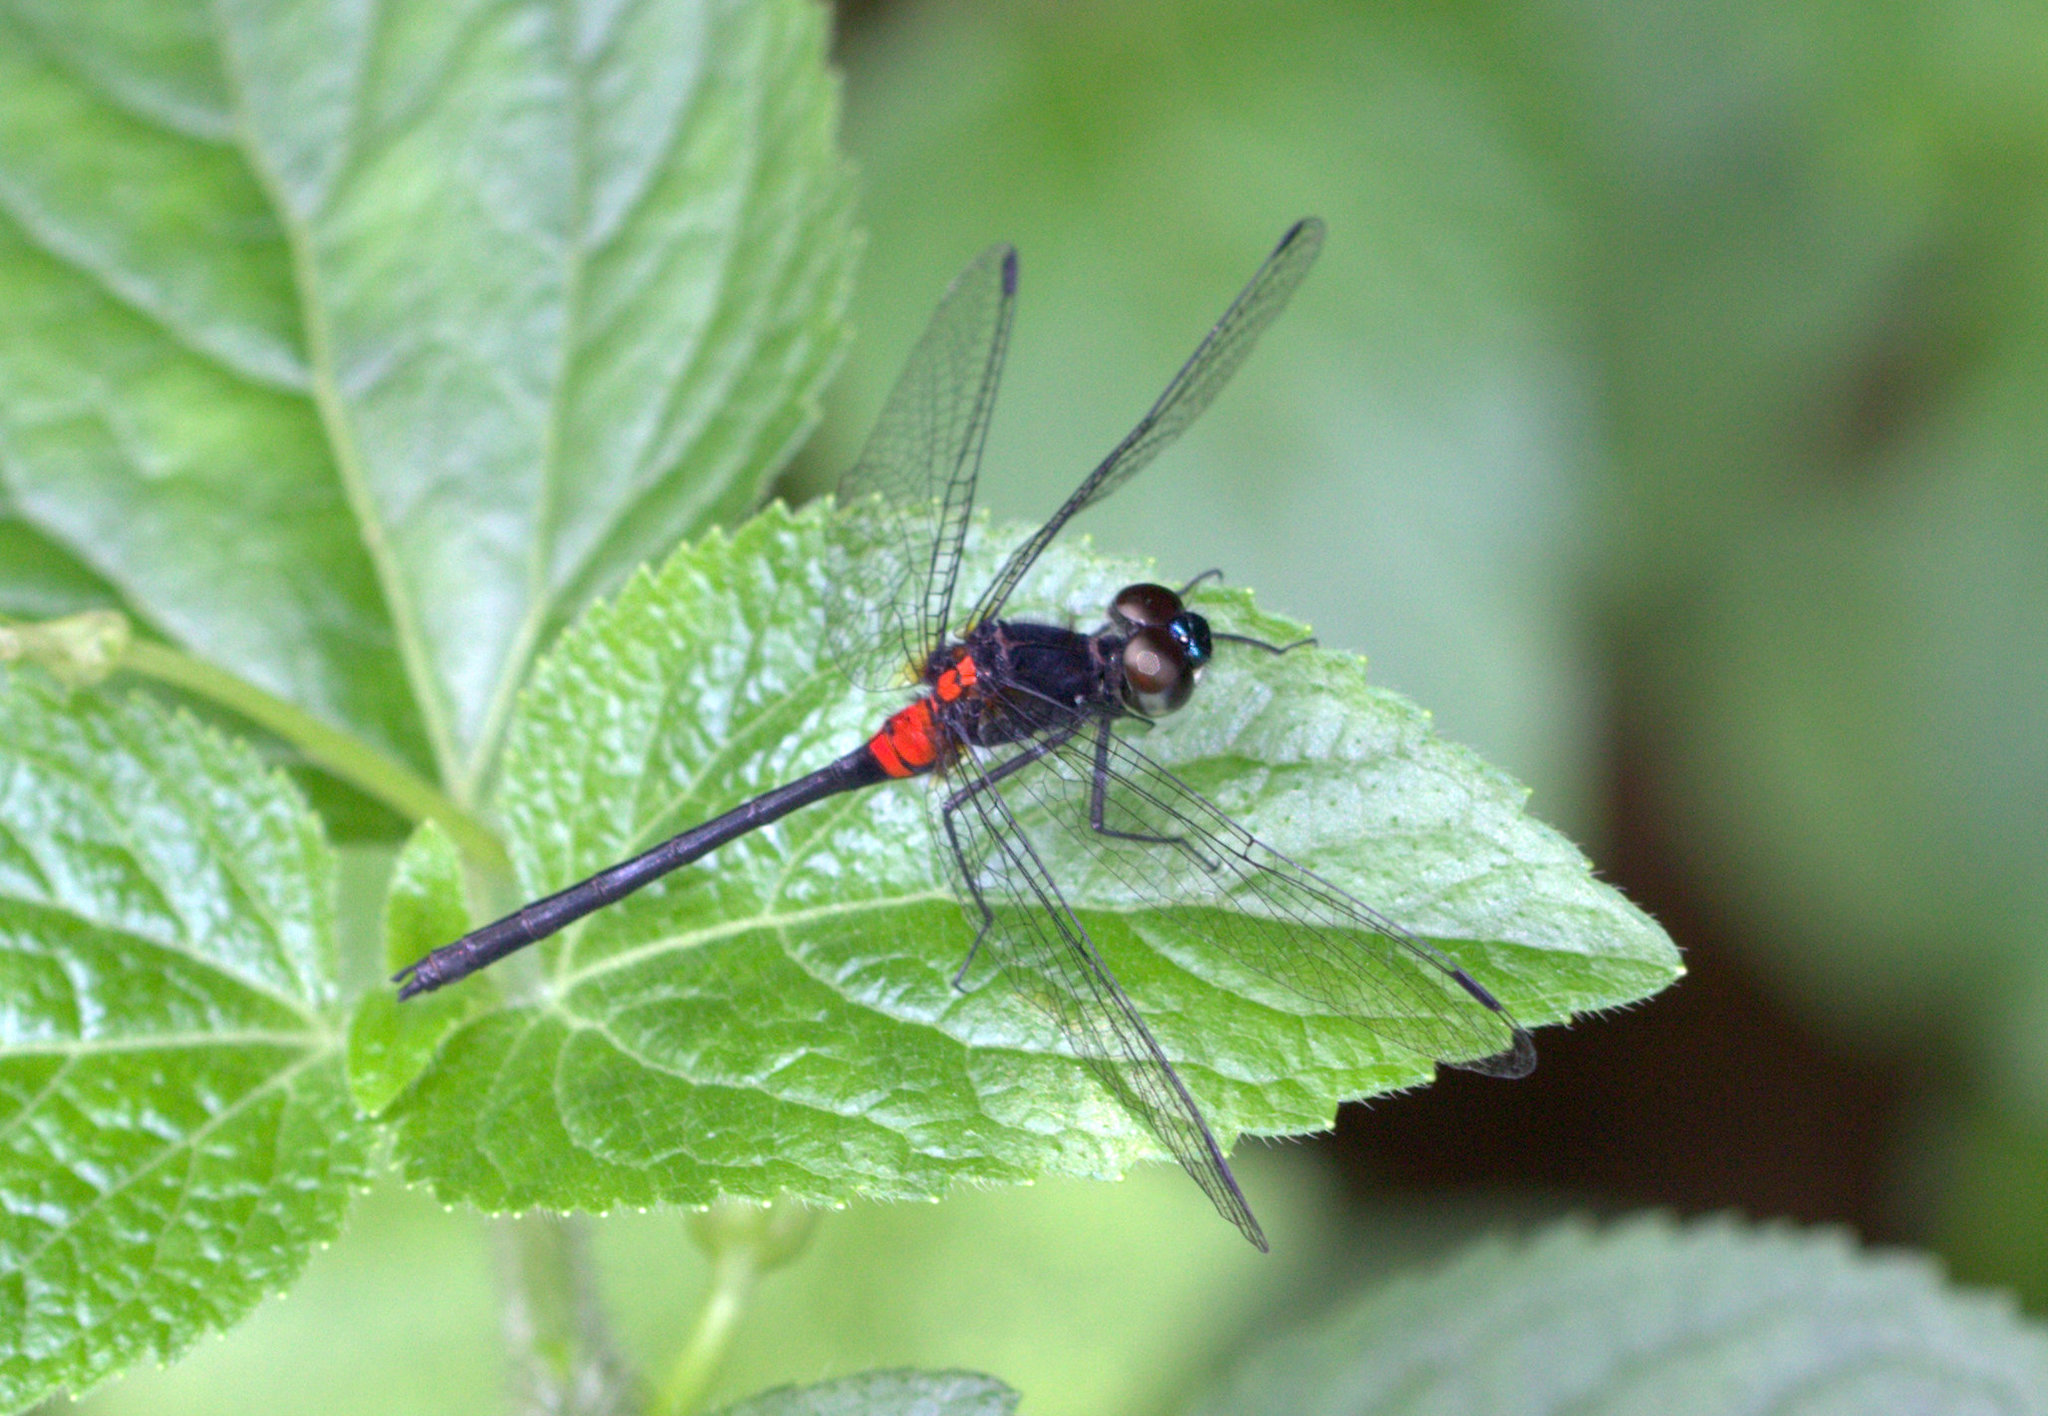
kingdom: Animalia
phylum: Arthropoda
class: Insecta
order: Odonata
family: Libellulidae
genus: Epithemis
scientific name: Epithemis
